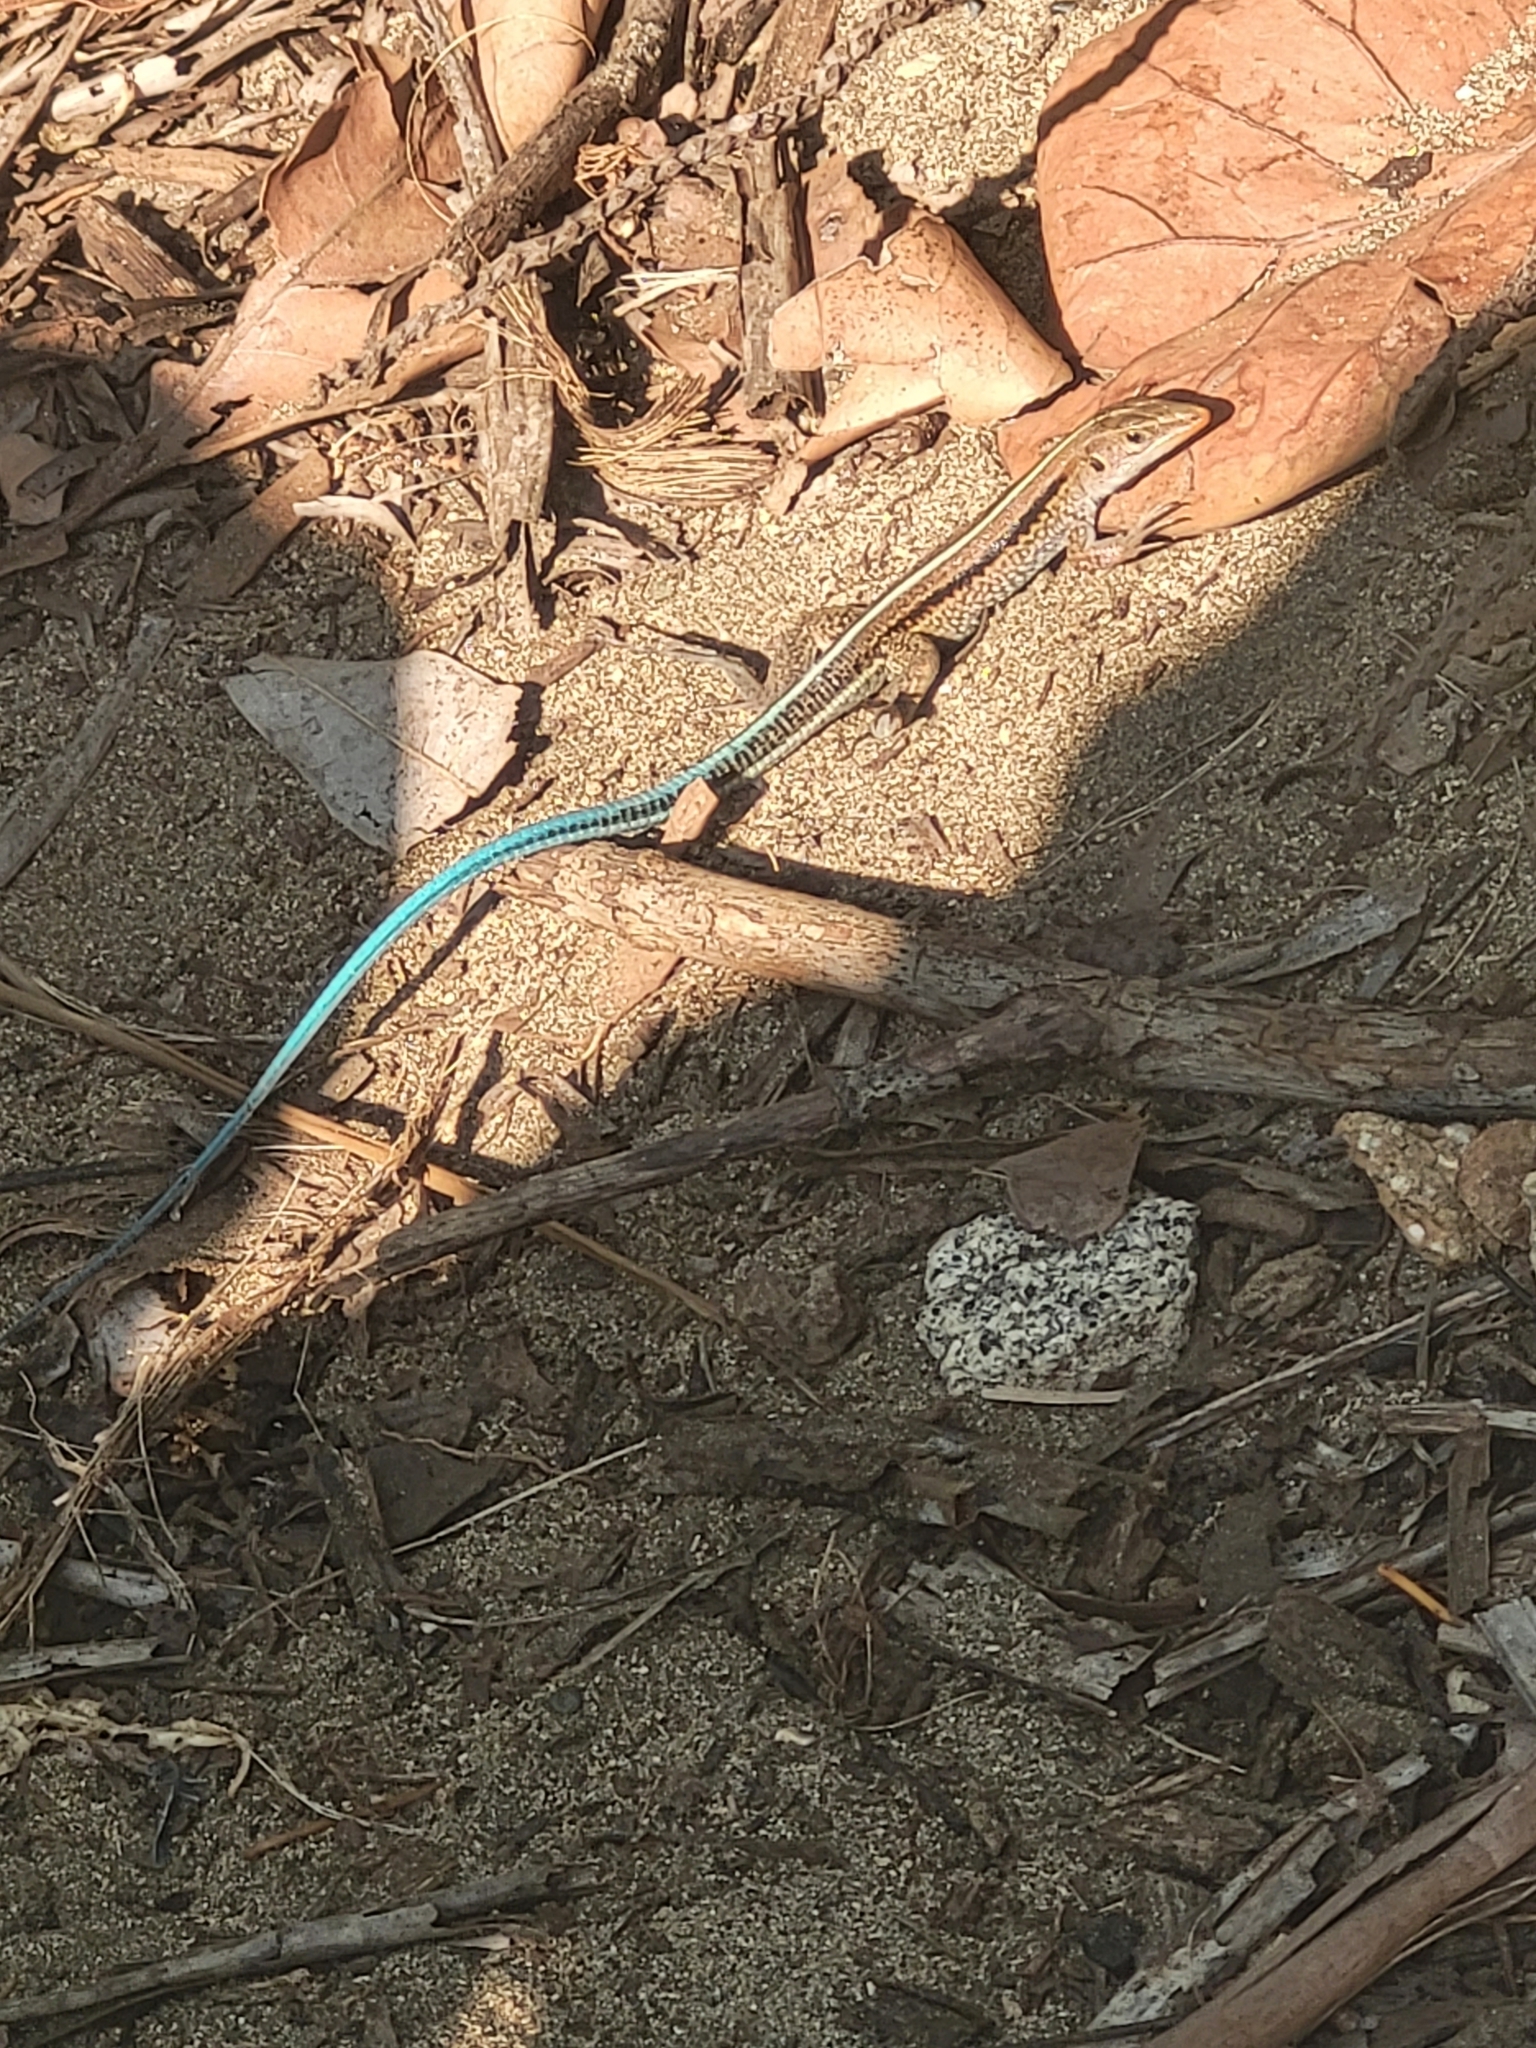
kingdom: Animalia
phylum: Chordata
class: Squamata
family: Teiidae
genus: Pholidoscelis
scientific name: Pholidoscelis auberi
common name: Auber's ameiva
